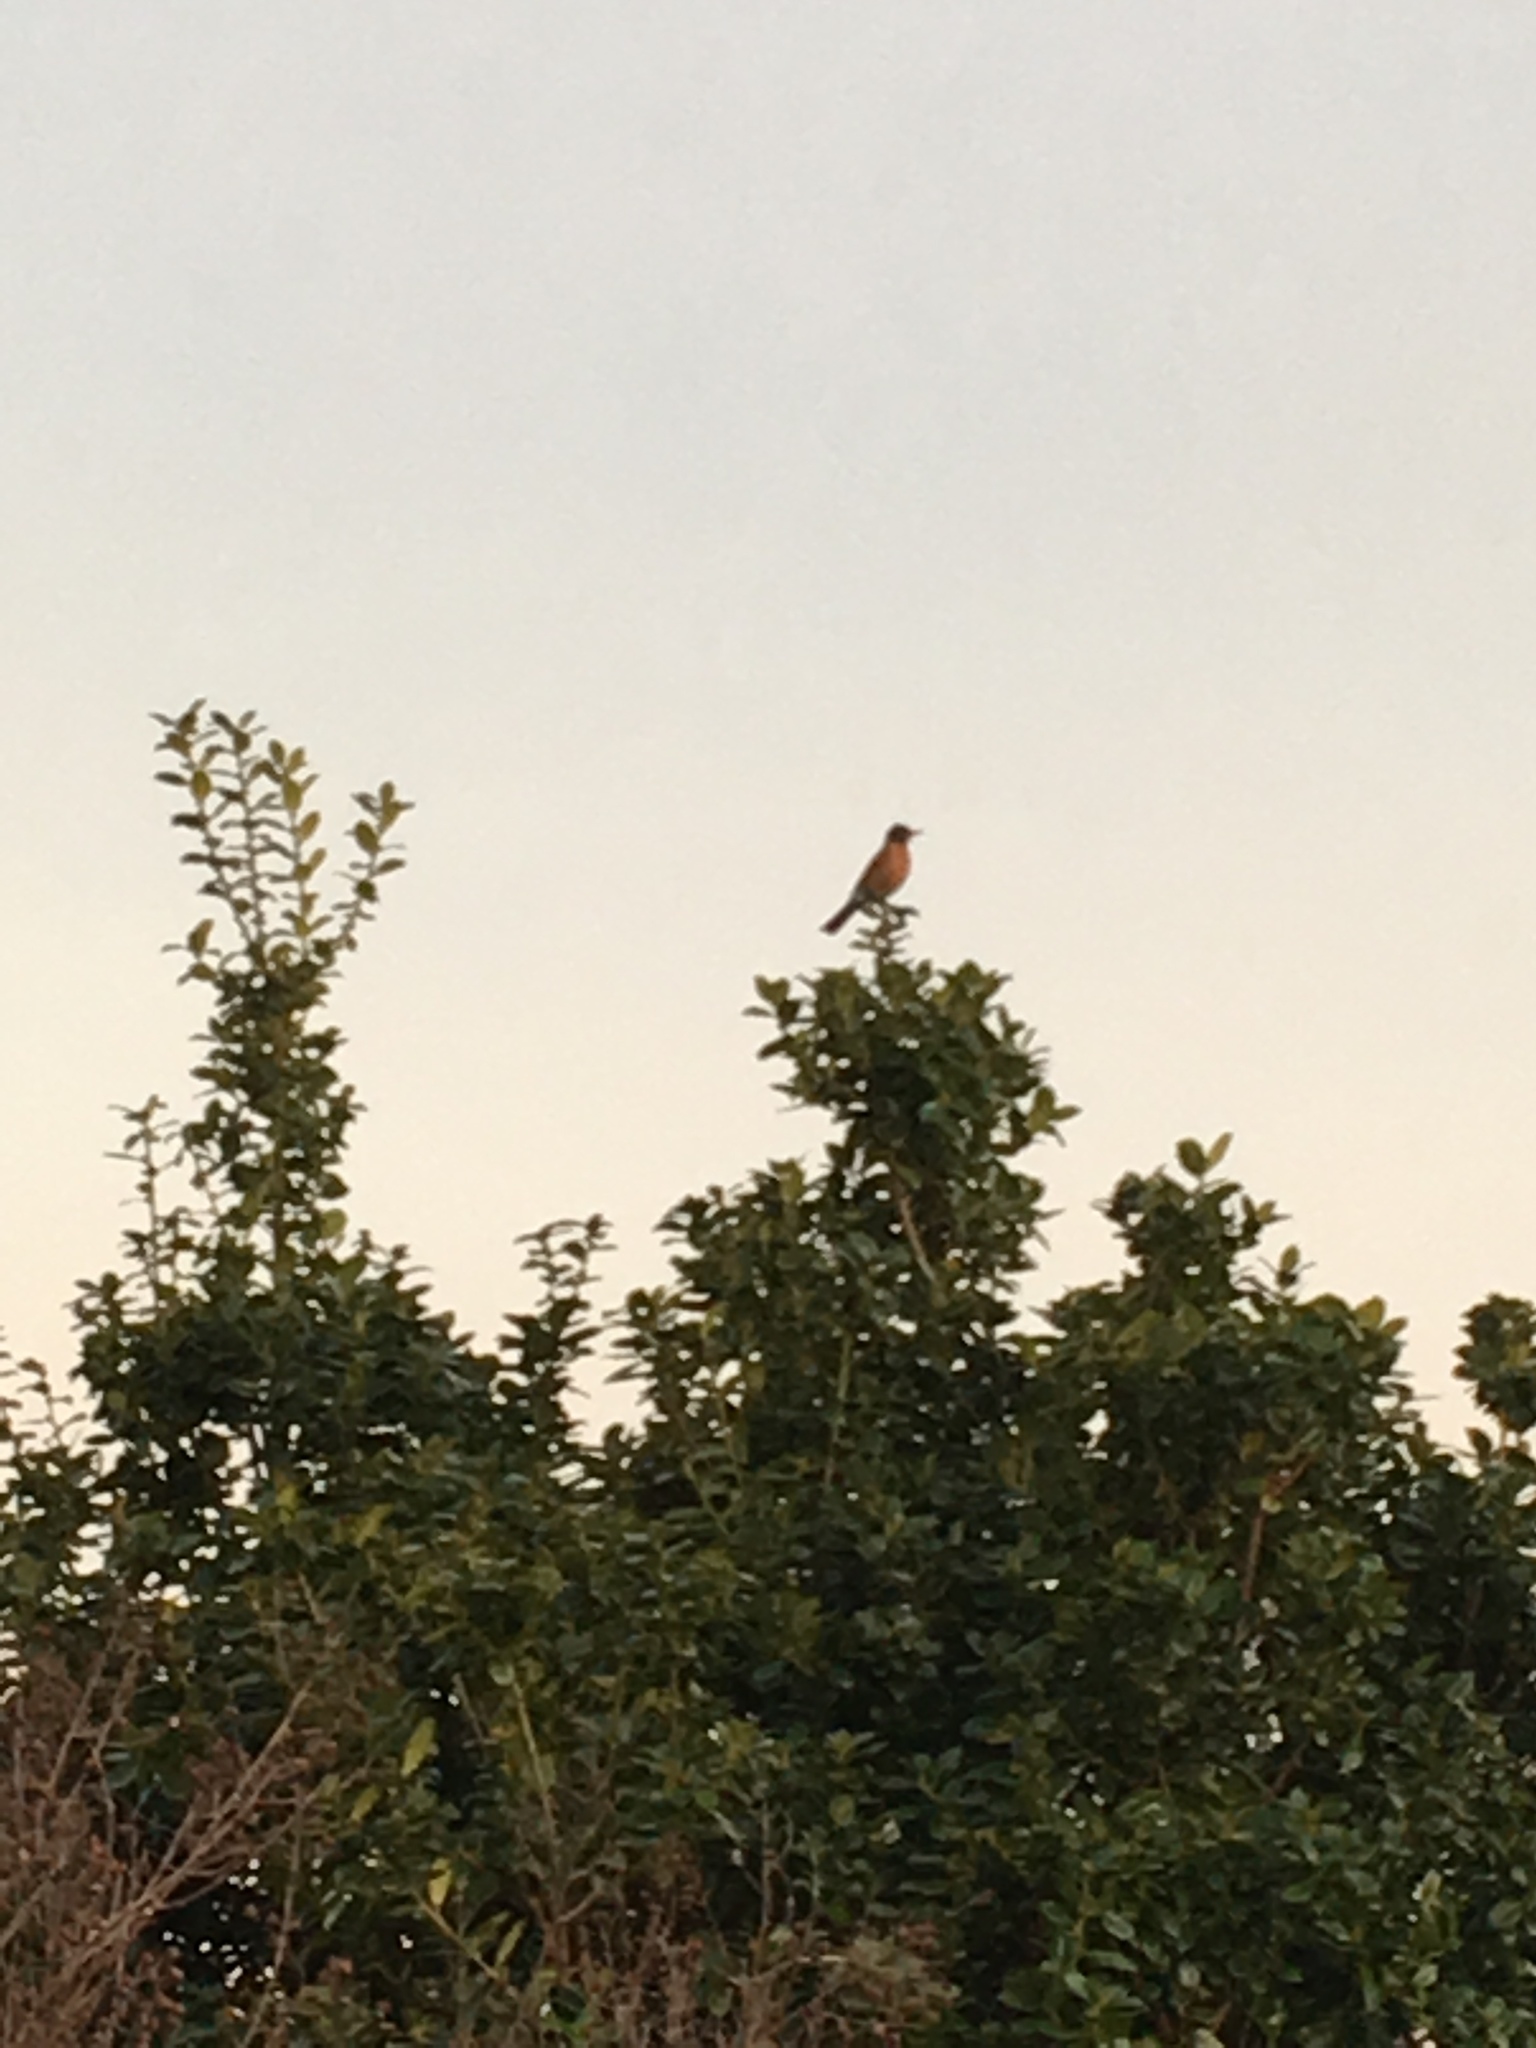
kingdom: Animalia
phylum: Chordata
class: Aves
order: Passeriformes
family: Turdidae
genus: Turdus
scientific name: Turdus migratorius
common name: American robin
